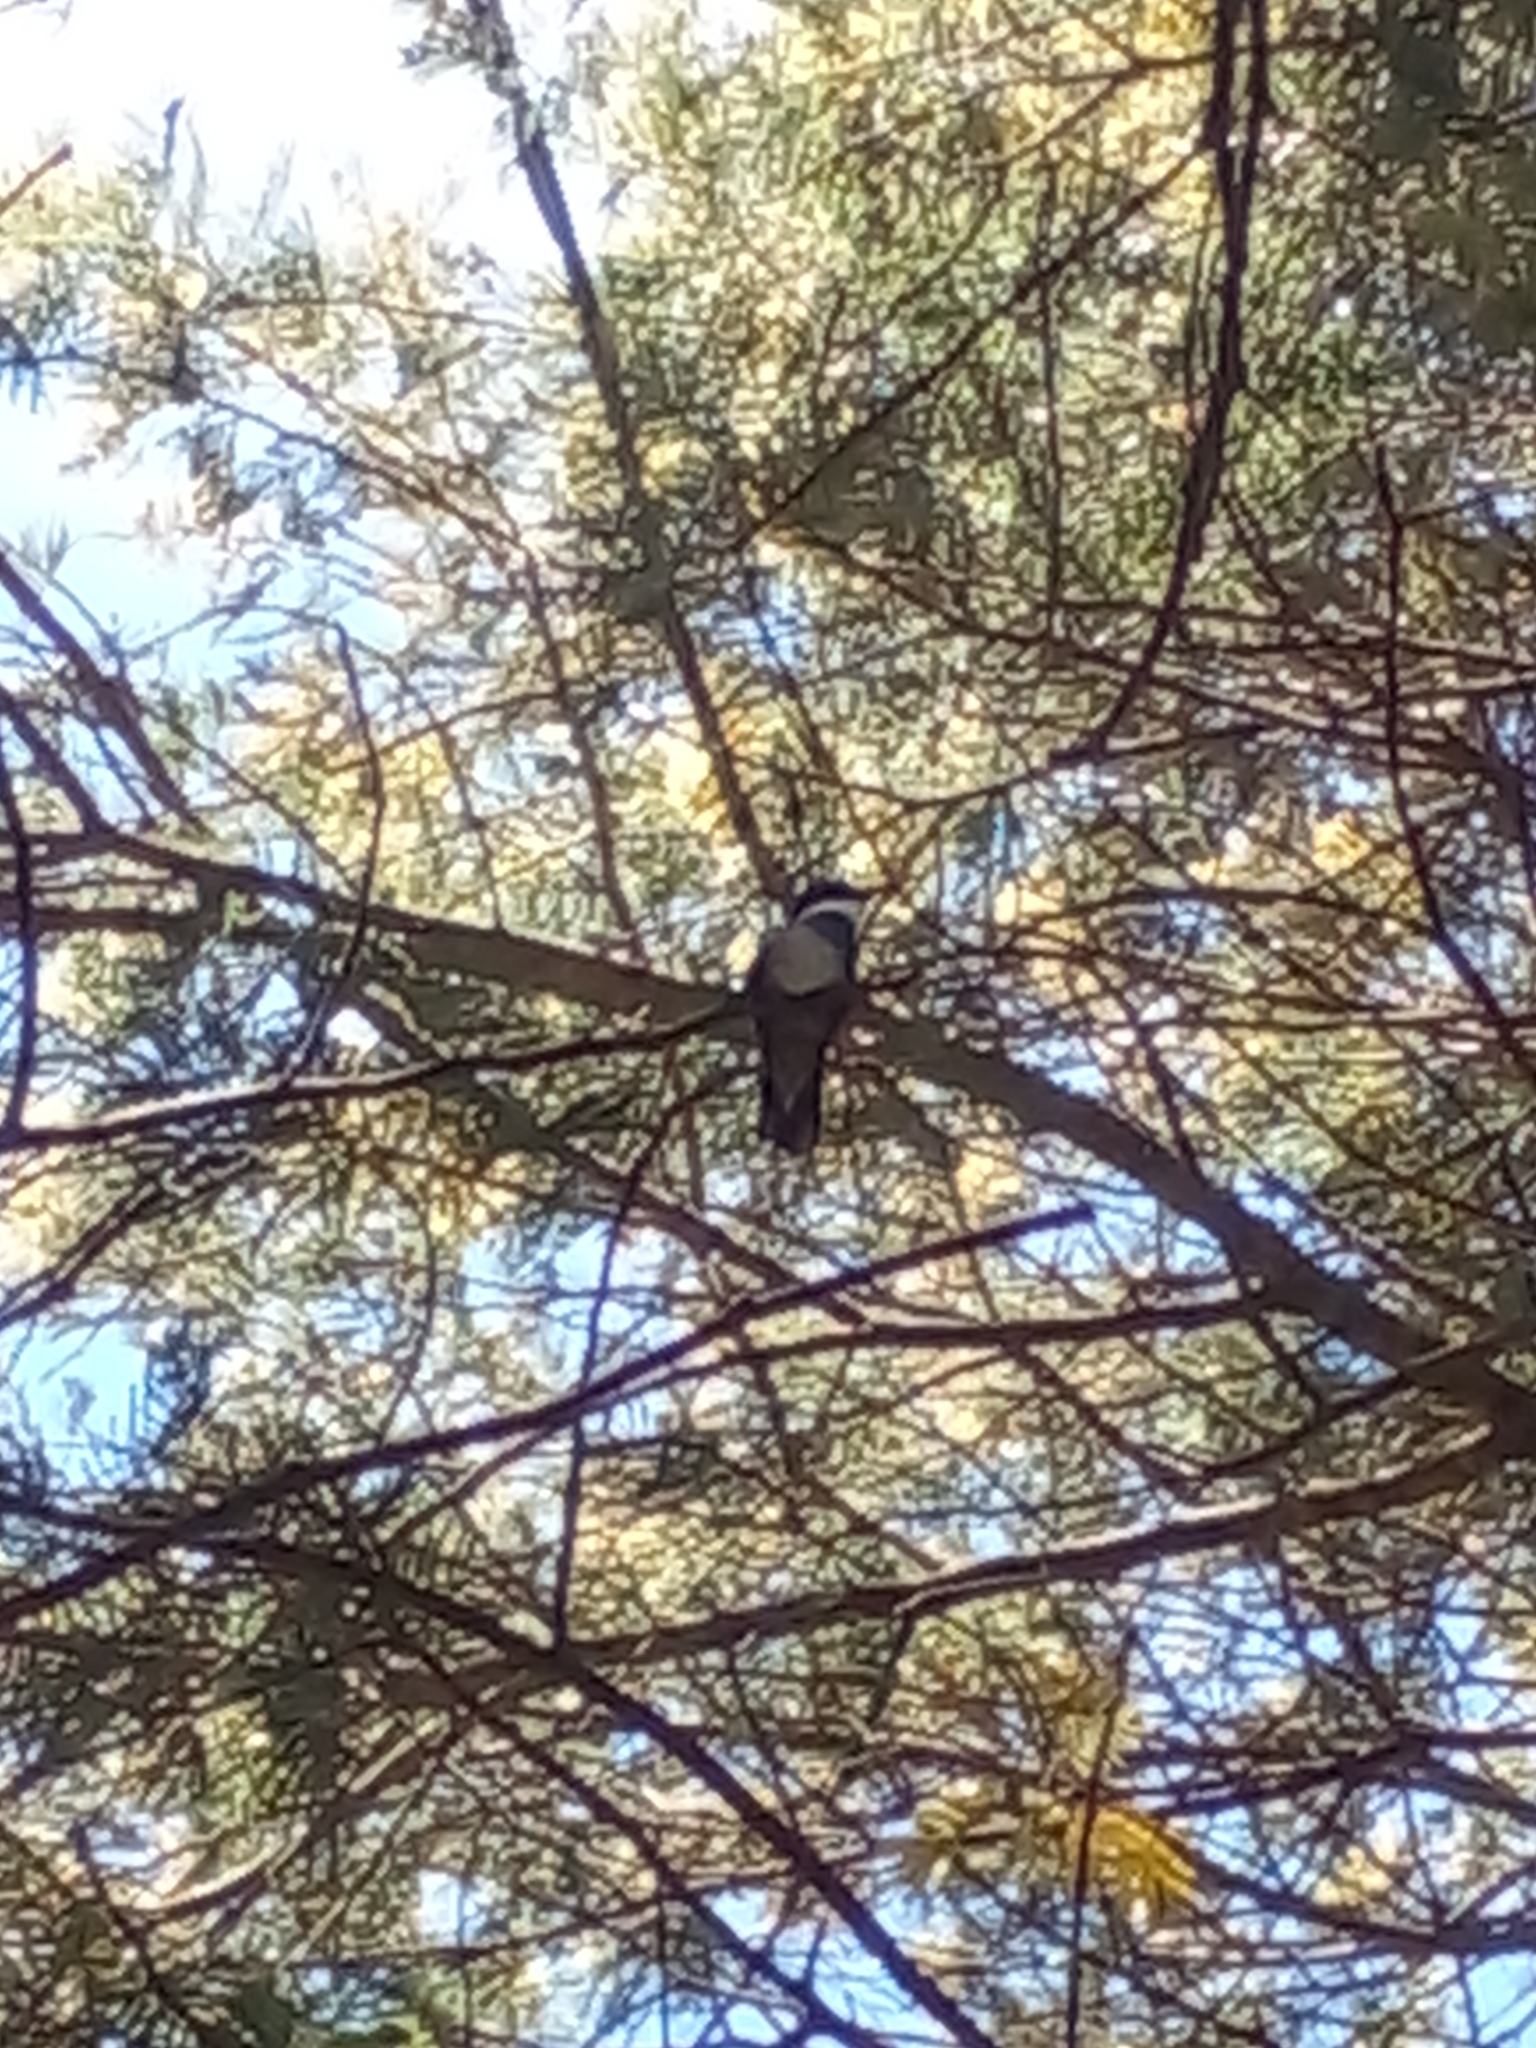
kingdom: Animalia
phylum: Chordata
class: Aves
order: Apodiformes
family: Trochilidae
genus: Leucochloris
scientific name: Leucochloris albicollis
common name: White-throated hummingbird
